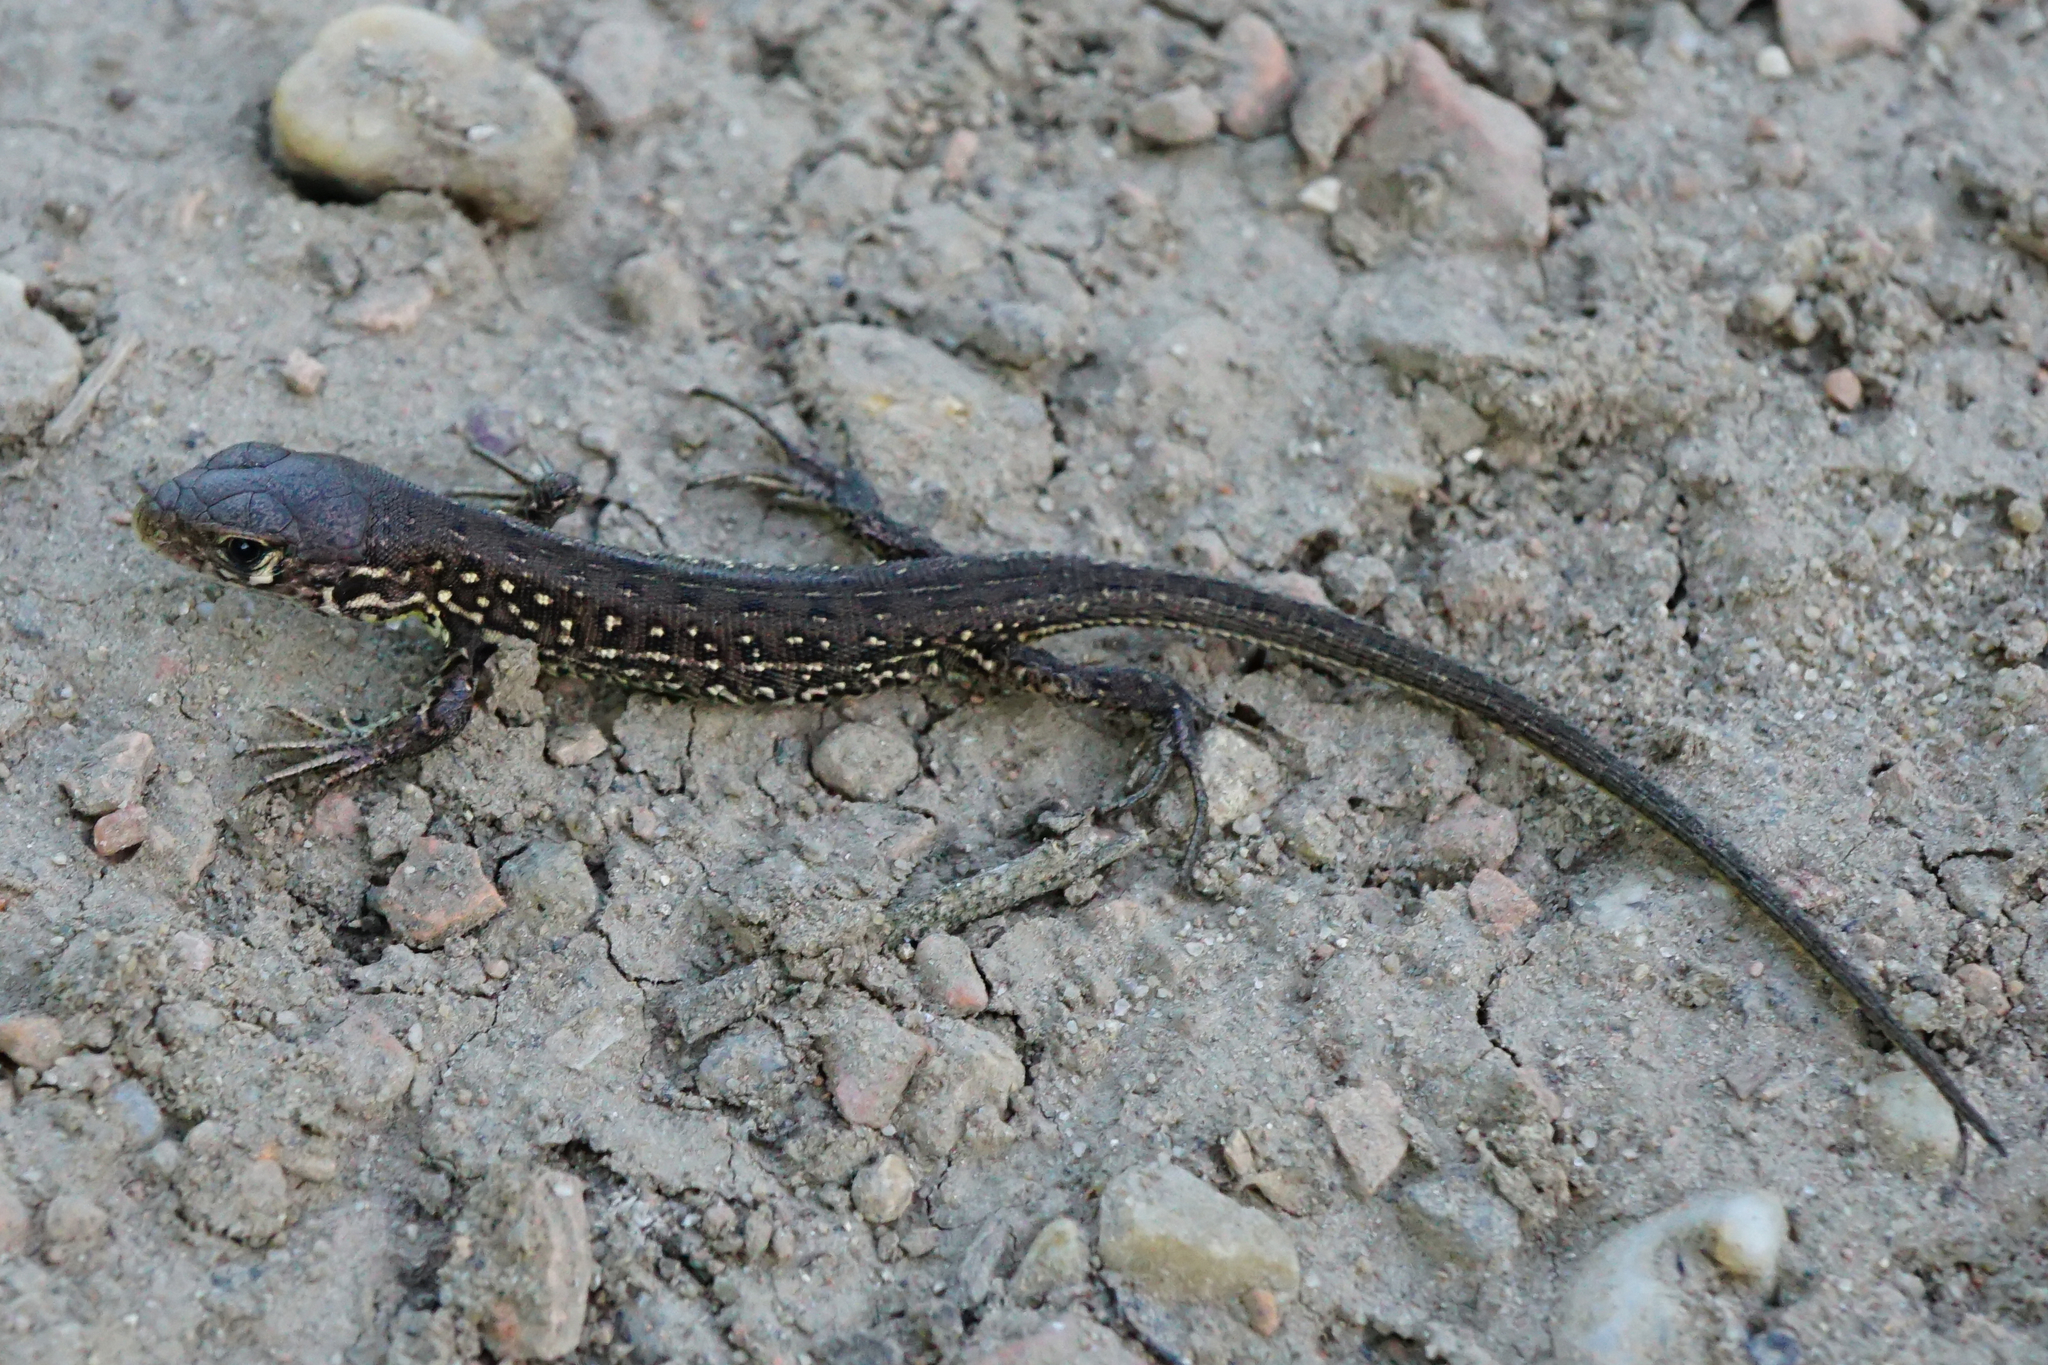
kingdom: Animalia
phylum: Chordata
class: Squamata
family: Lacertidae
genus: Lacerta
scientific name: Lacerta agilis
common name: Sand lizard
